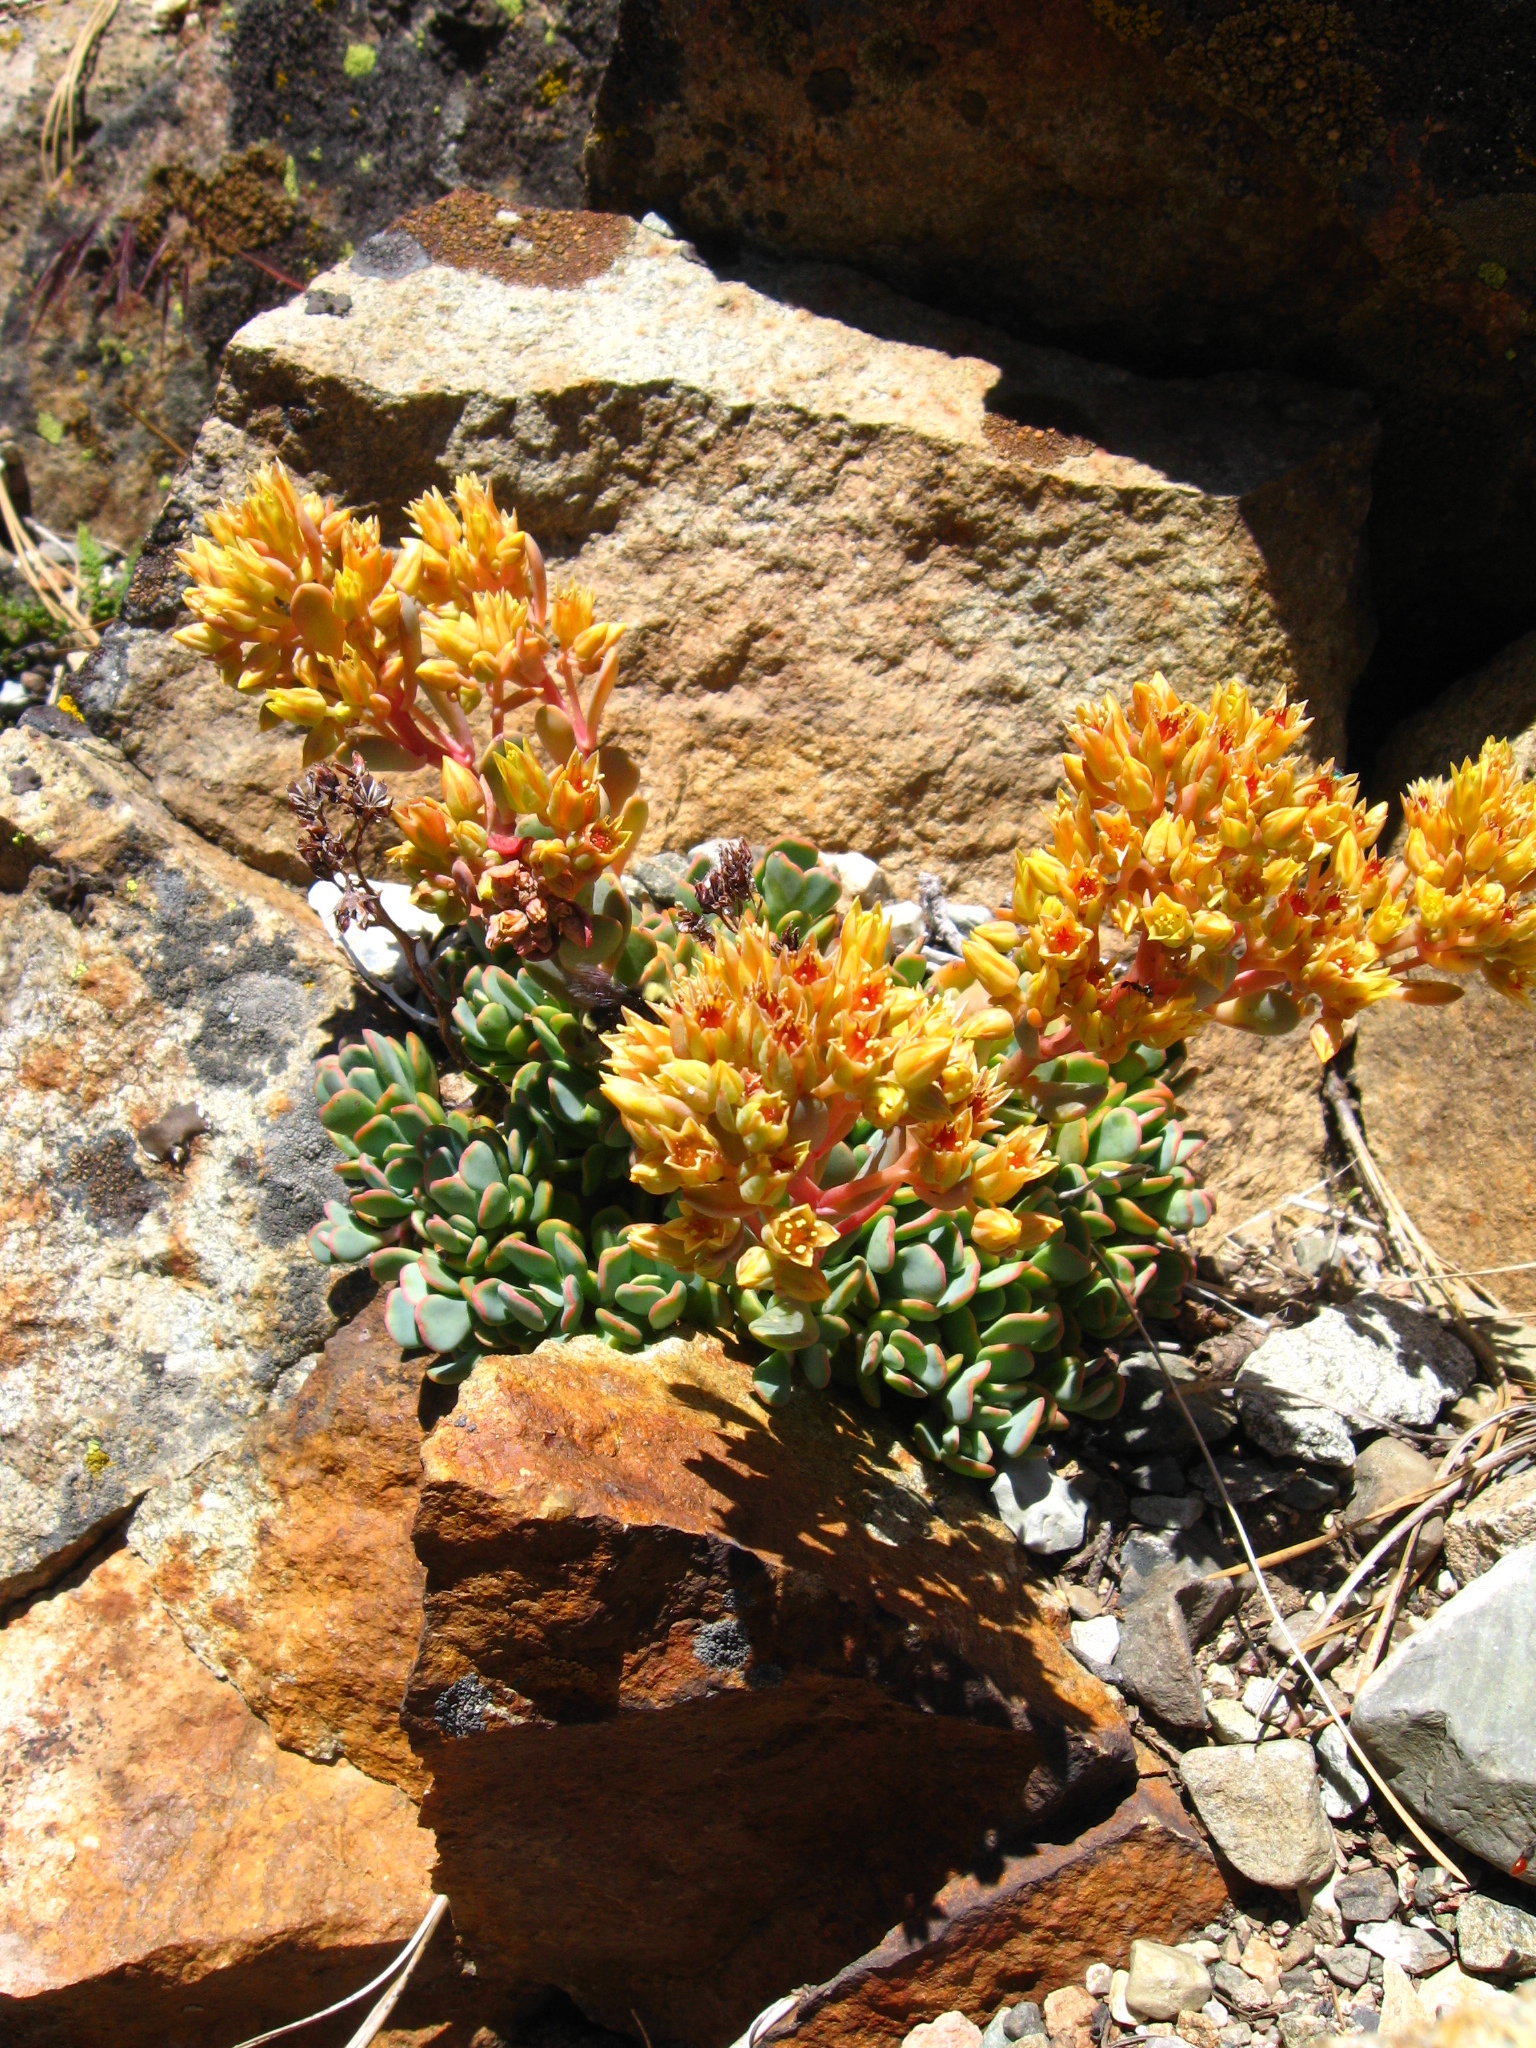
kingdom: Plantae
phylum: Tracheophyta
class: Magnoliopsida
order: Saxifragales
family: Crassulaceae
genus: Sedum
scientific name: Sedum obtusatum
